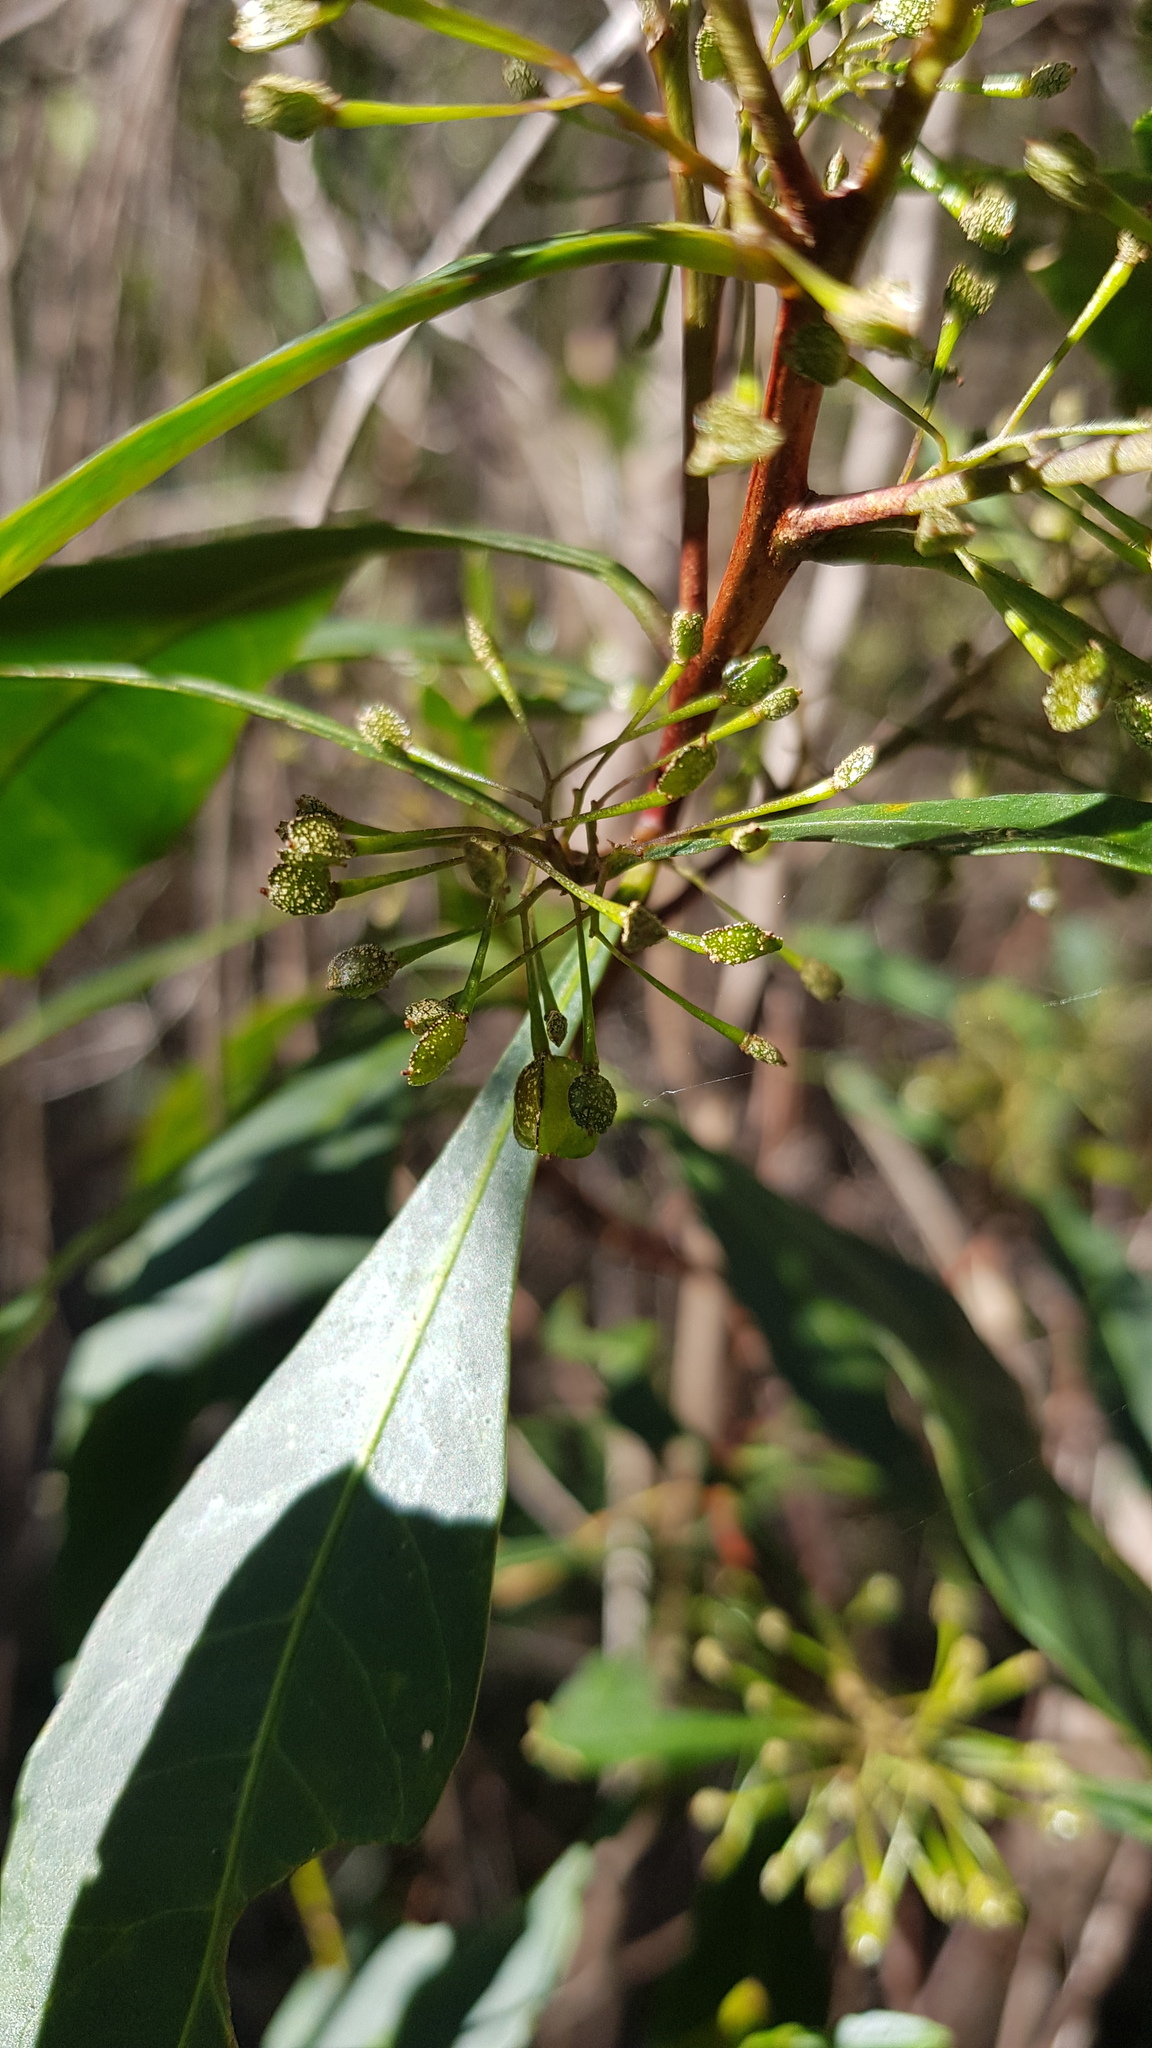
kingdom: Plantae
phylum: Tracheophyta
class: Magnoliopsida
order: Sapindales
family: Sapindaceae
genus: Dodonaea
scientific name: Dodonaea triquetra
